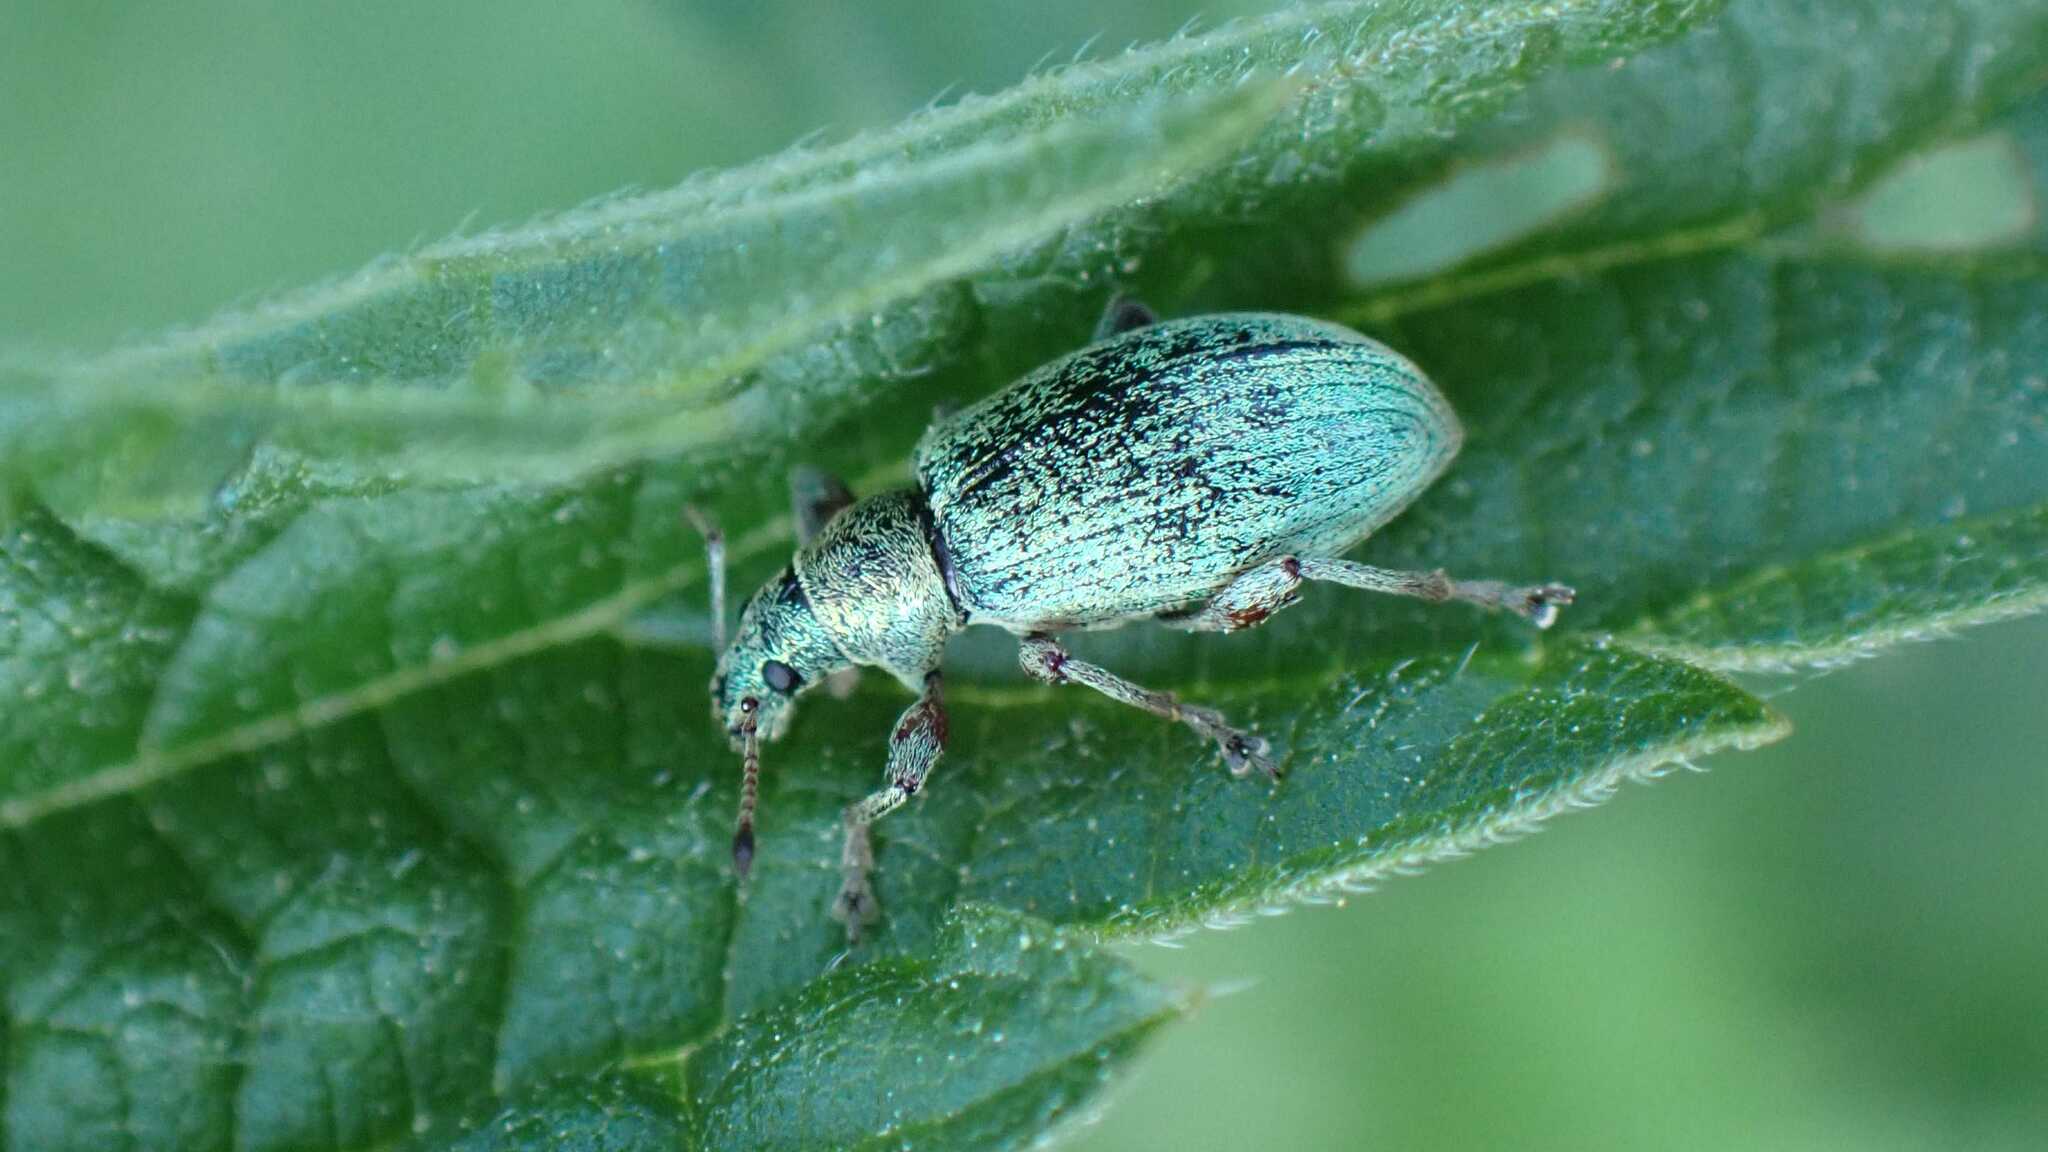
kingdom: Animalia
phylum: Arthropoda
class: Insecta
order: Coleoptera
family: Curculionidae
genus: Phyllobius
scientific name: Phyllobius pomaceus
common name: Green nettle weevil
